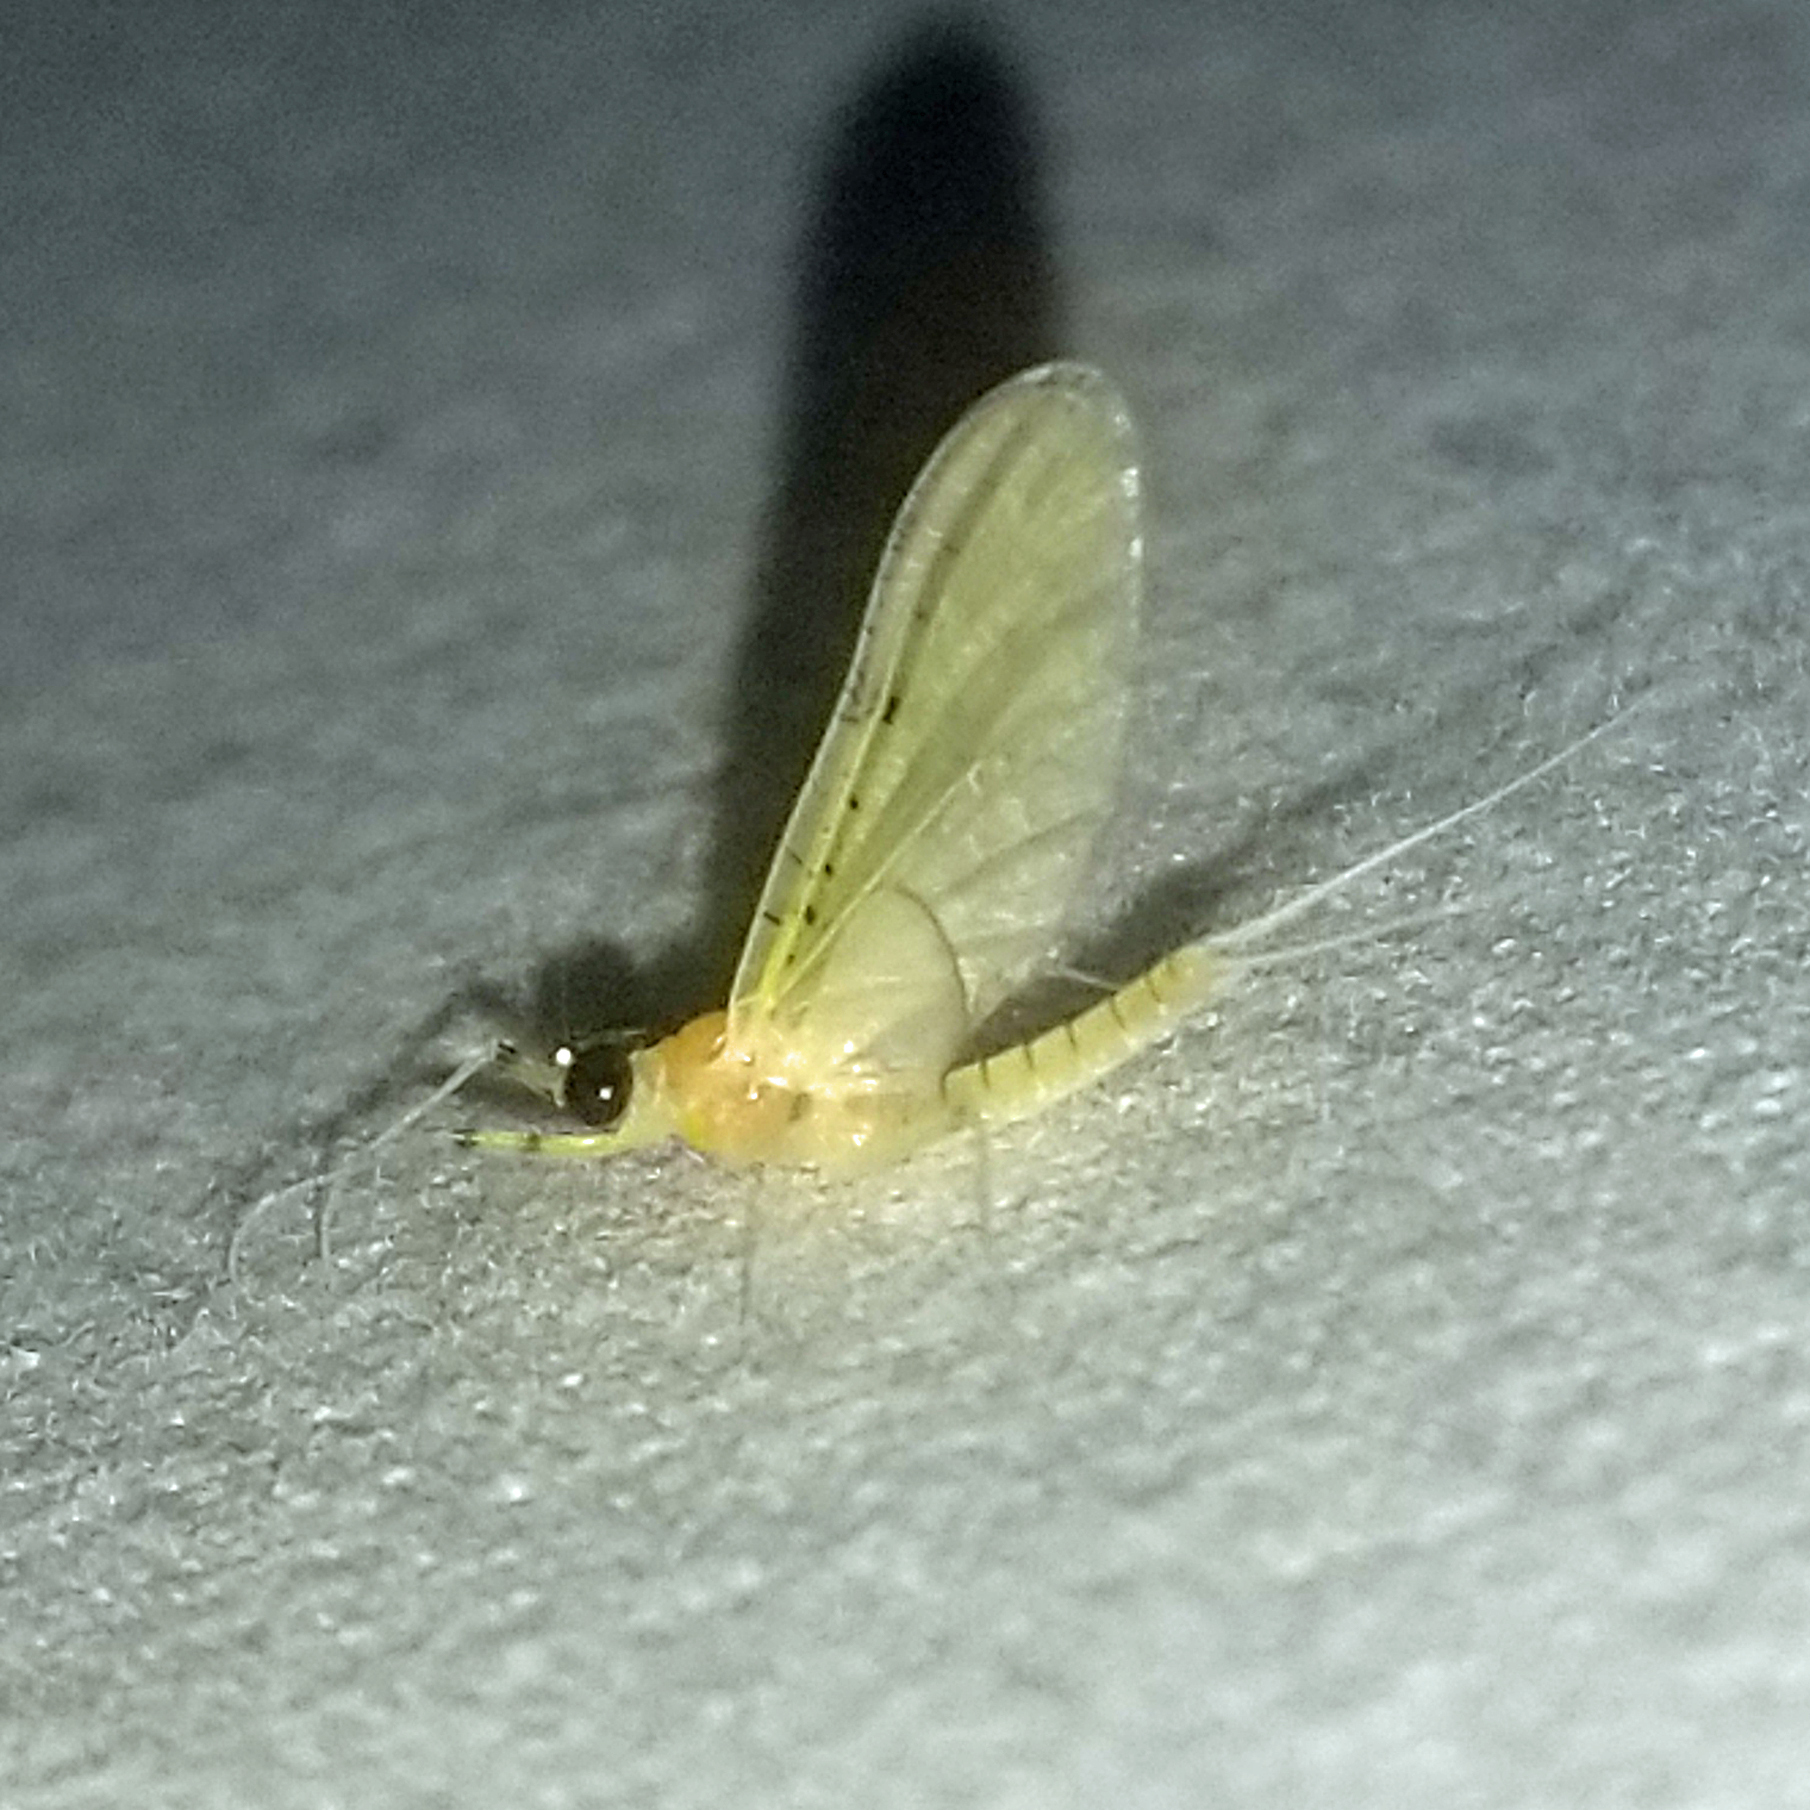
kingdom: Animalia
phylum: Arthropoda
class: Insecta
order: Ephemeroptera
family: Heptageniidae
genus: Stenacron
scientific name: Stenacron interpunctatum
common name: Orange cahill
